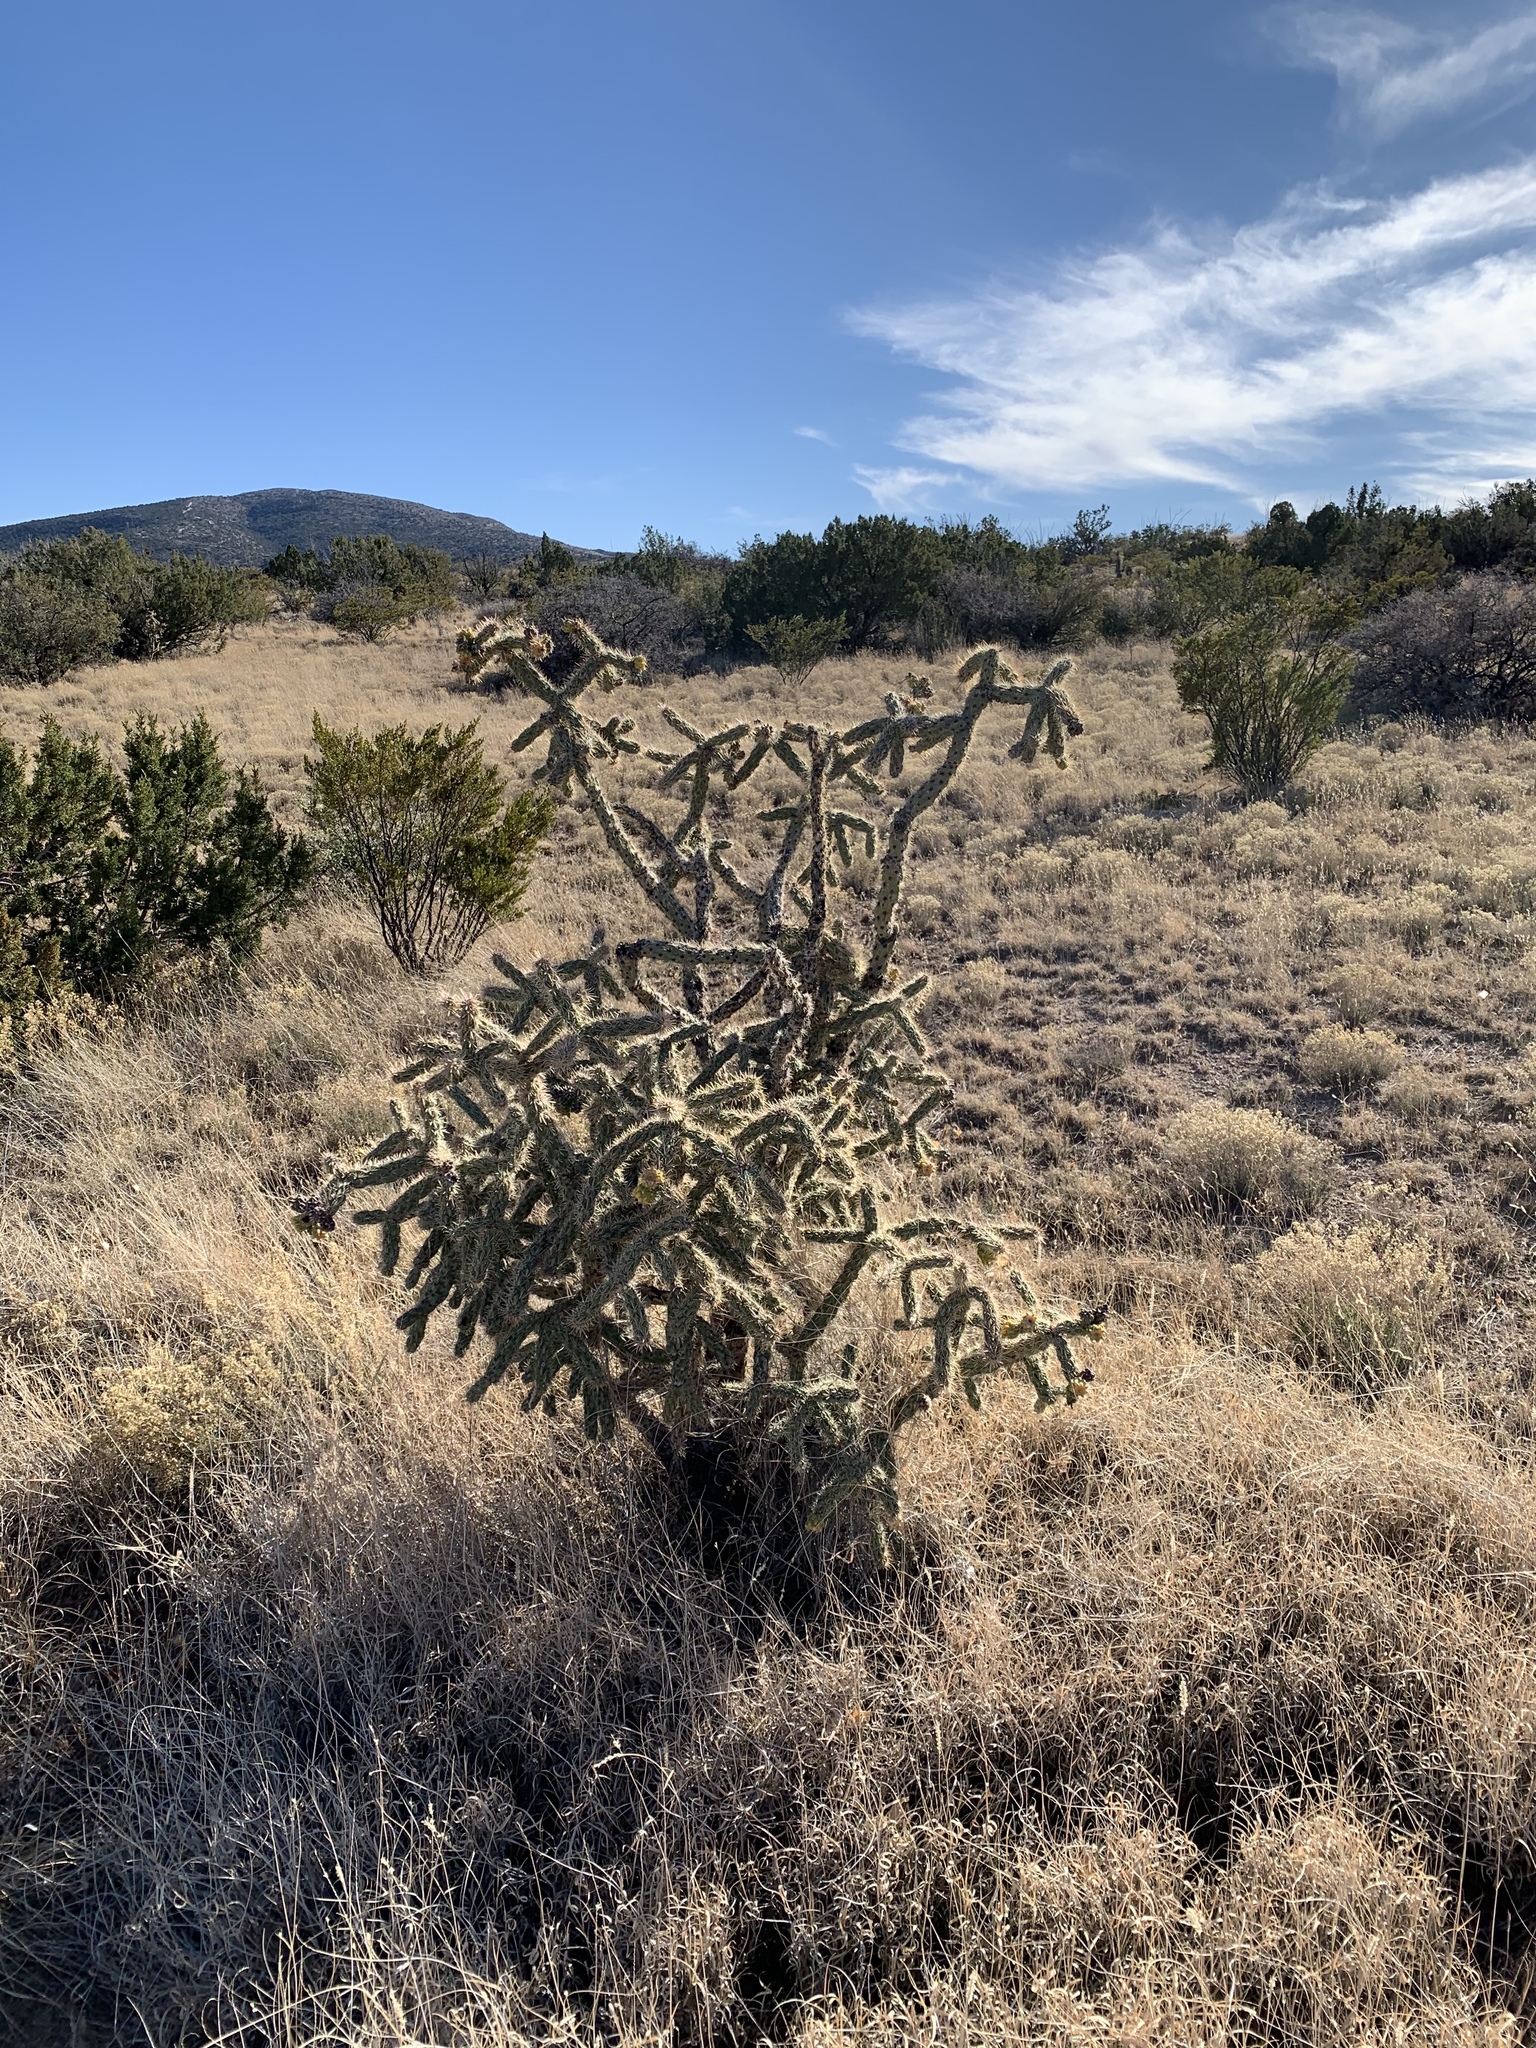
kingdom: Plantae
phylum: Tracheophyta
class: Magnoliopsida
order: Caryophyllales
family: Cactaceae
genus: Cylindropuntia
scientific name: Cylindropuntia imbricata
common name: Candelabrum cactus
